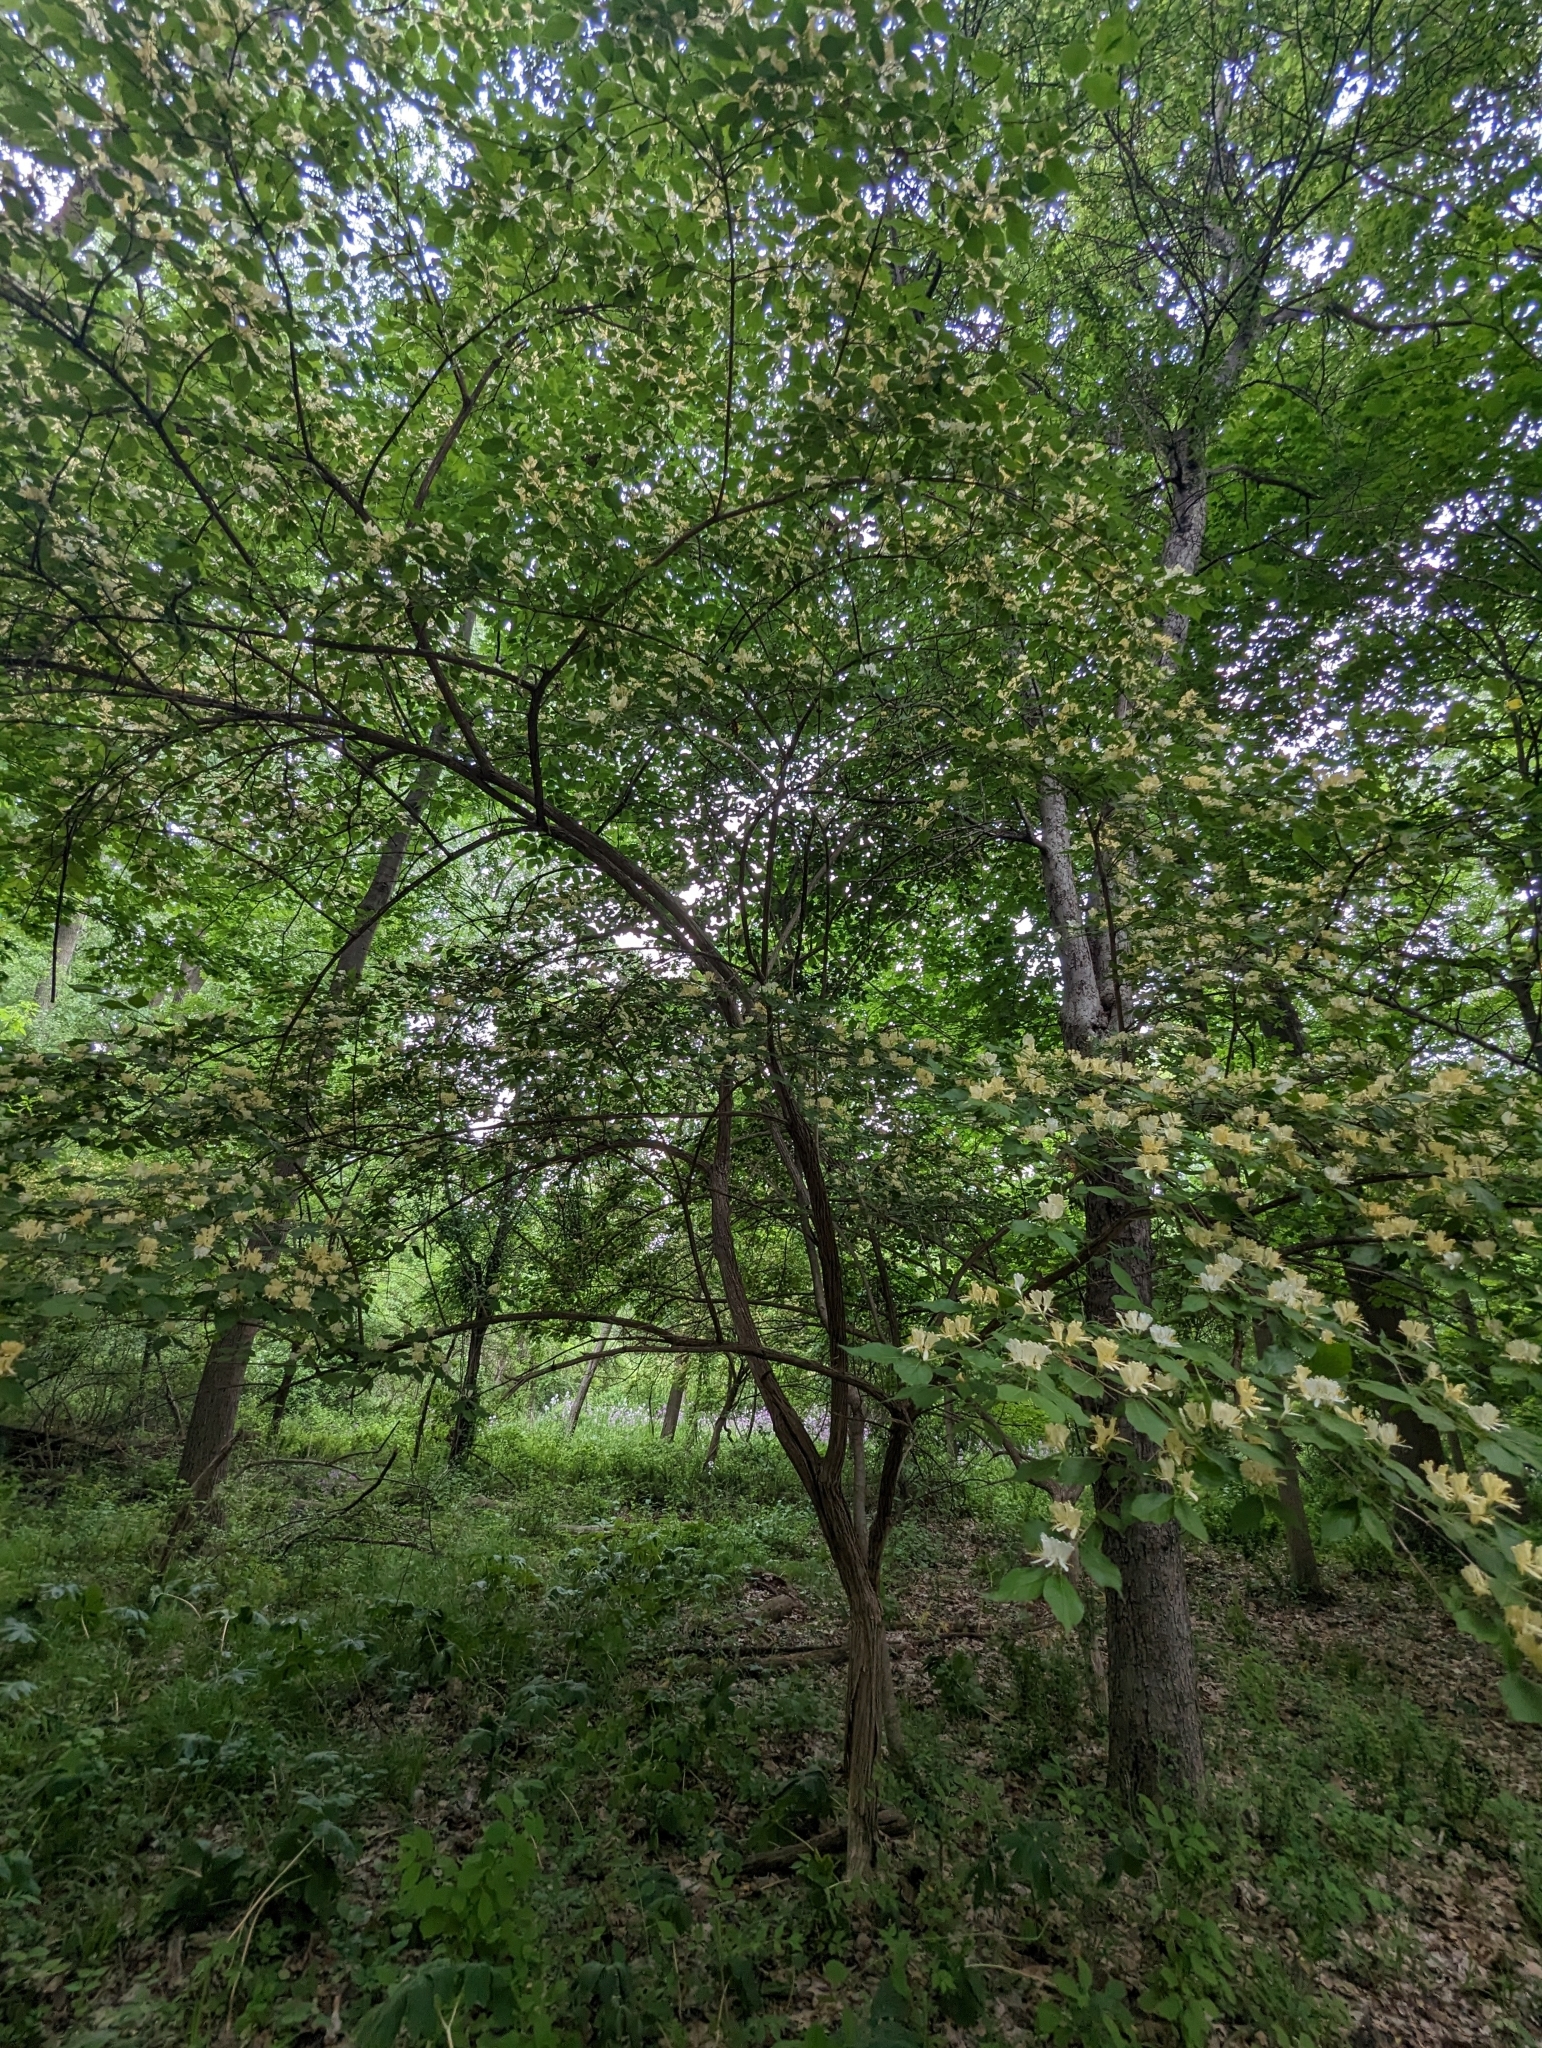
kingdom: Plantae
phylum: Tracheophyta
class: Magnoliopsida
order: Dipsacales
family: Caprifoliaceae
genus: Lonicera
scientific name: Lonicera maackii
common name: Amur honeysuckle
